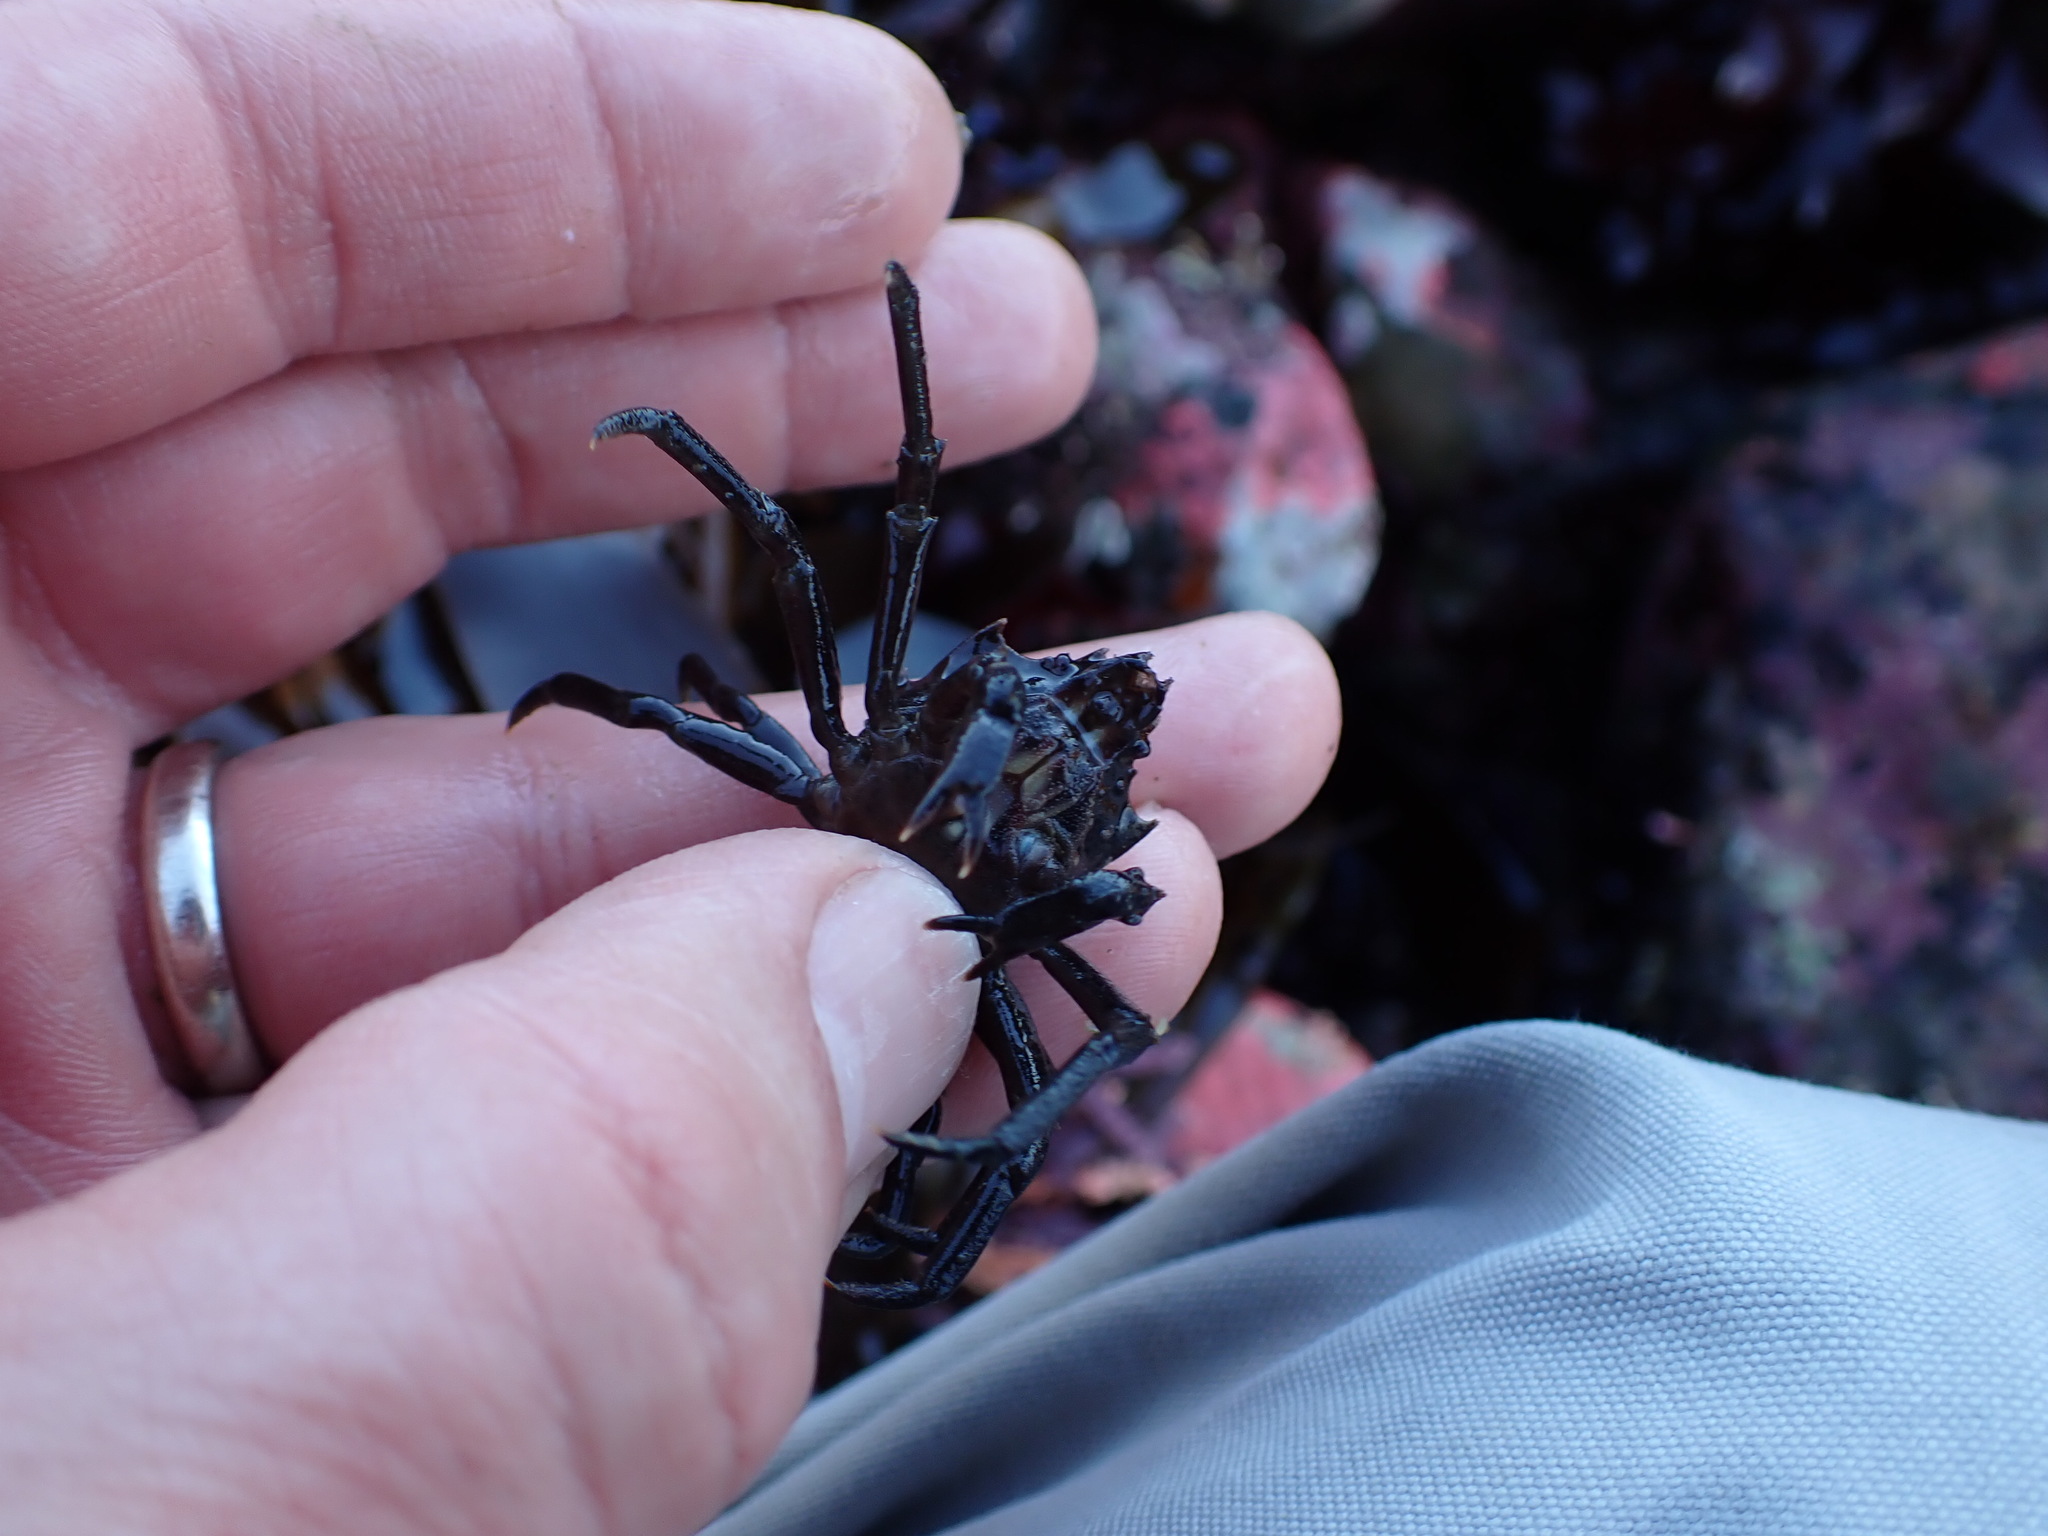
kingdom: Animalia
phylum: Arthropoda
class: Malacostraca
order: Decapoda
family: Epialtidae
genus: Pugettia
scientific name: Pugettia producta
